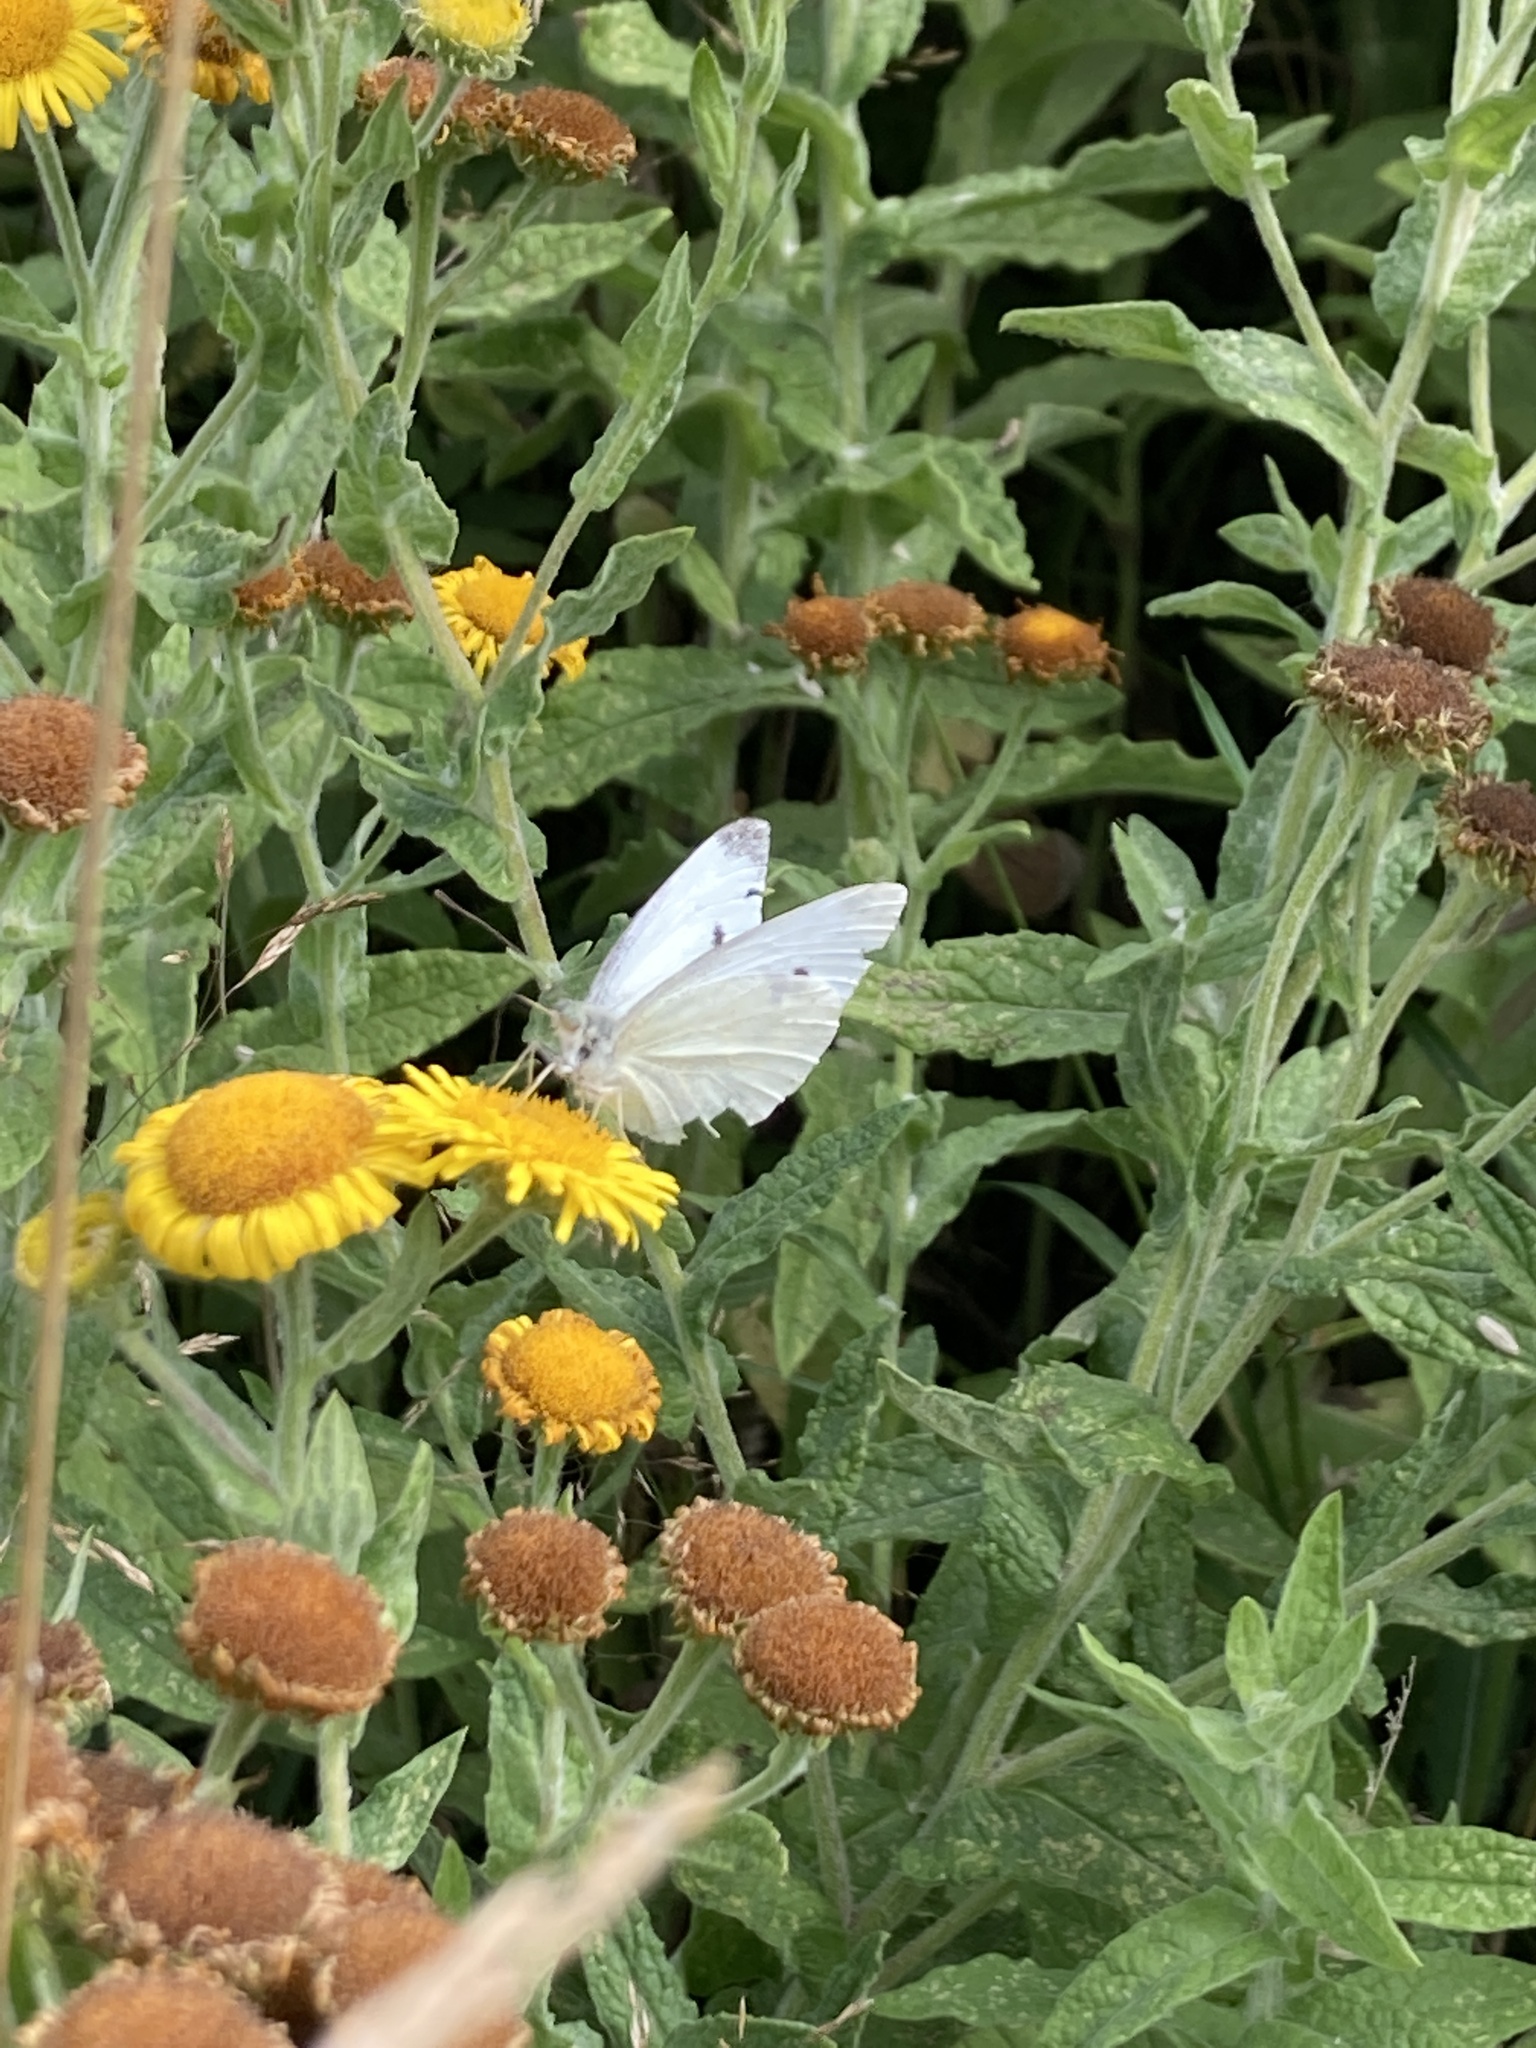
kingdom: Animalia
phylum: Arthropoda
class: Insecta
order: Lepidoptera
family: Pieridae
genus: Pieris
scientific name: Pieris rapae
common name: Small white
